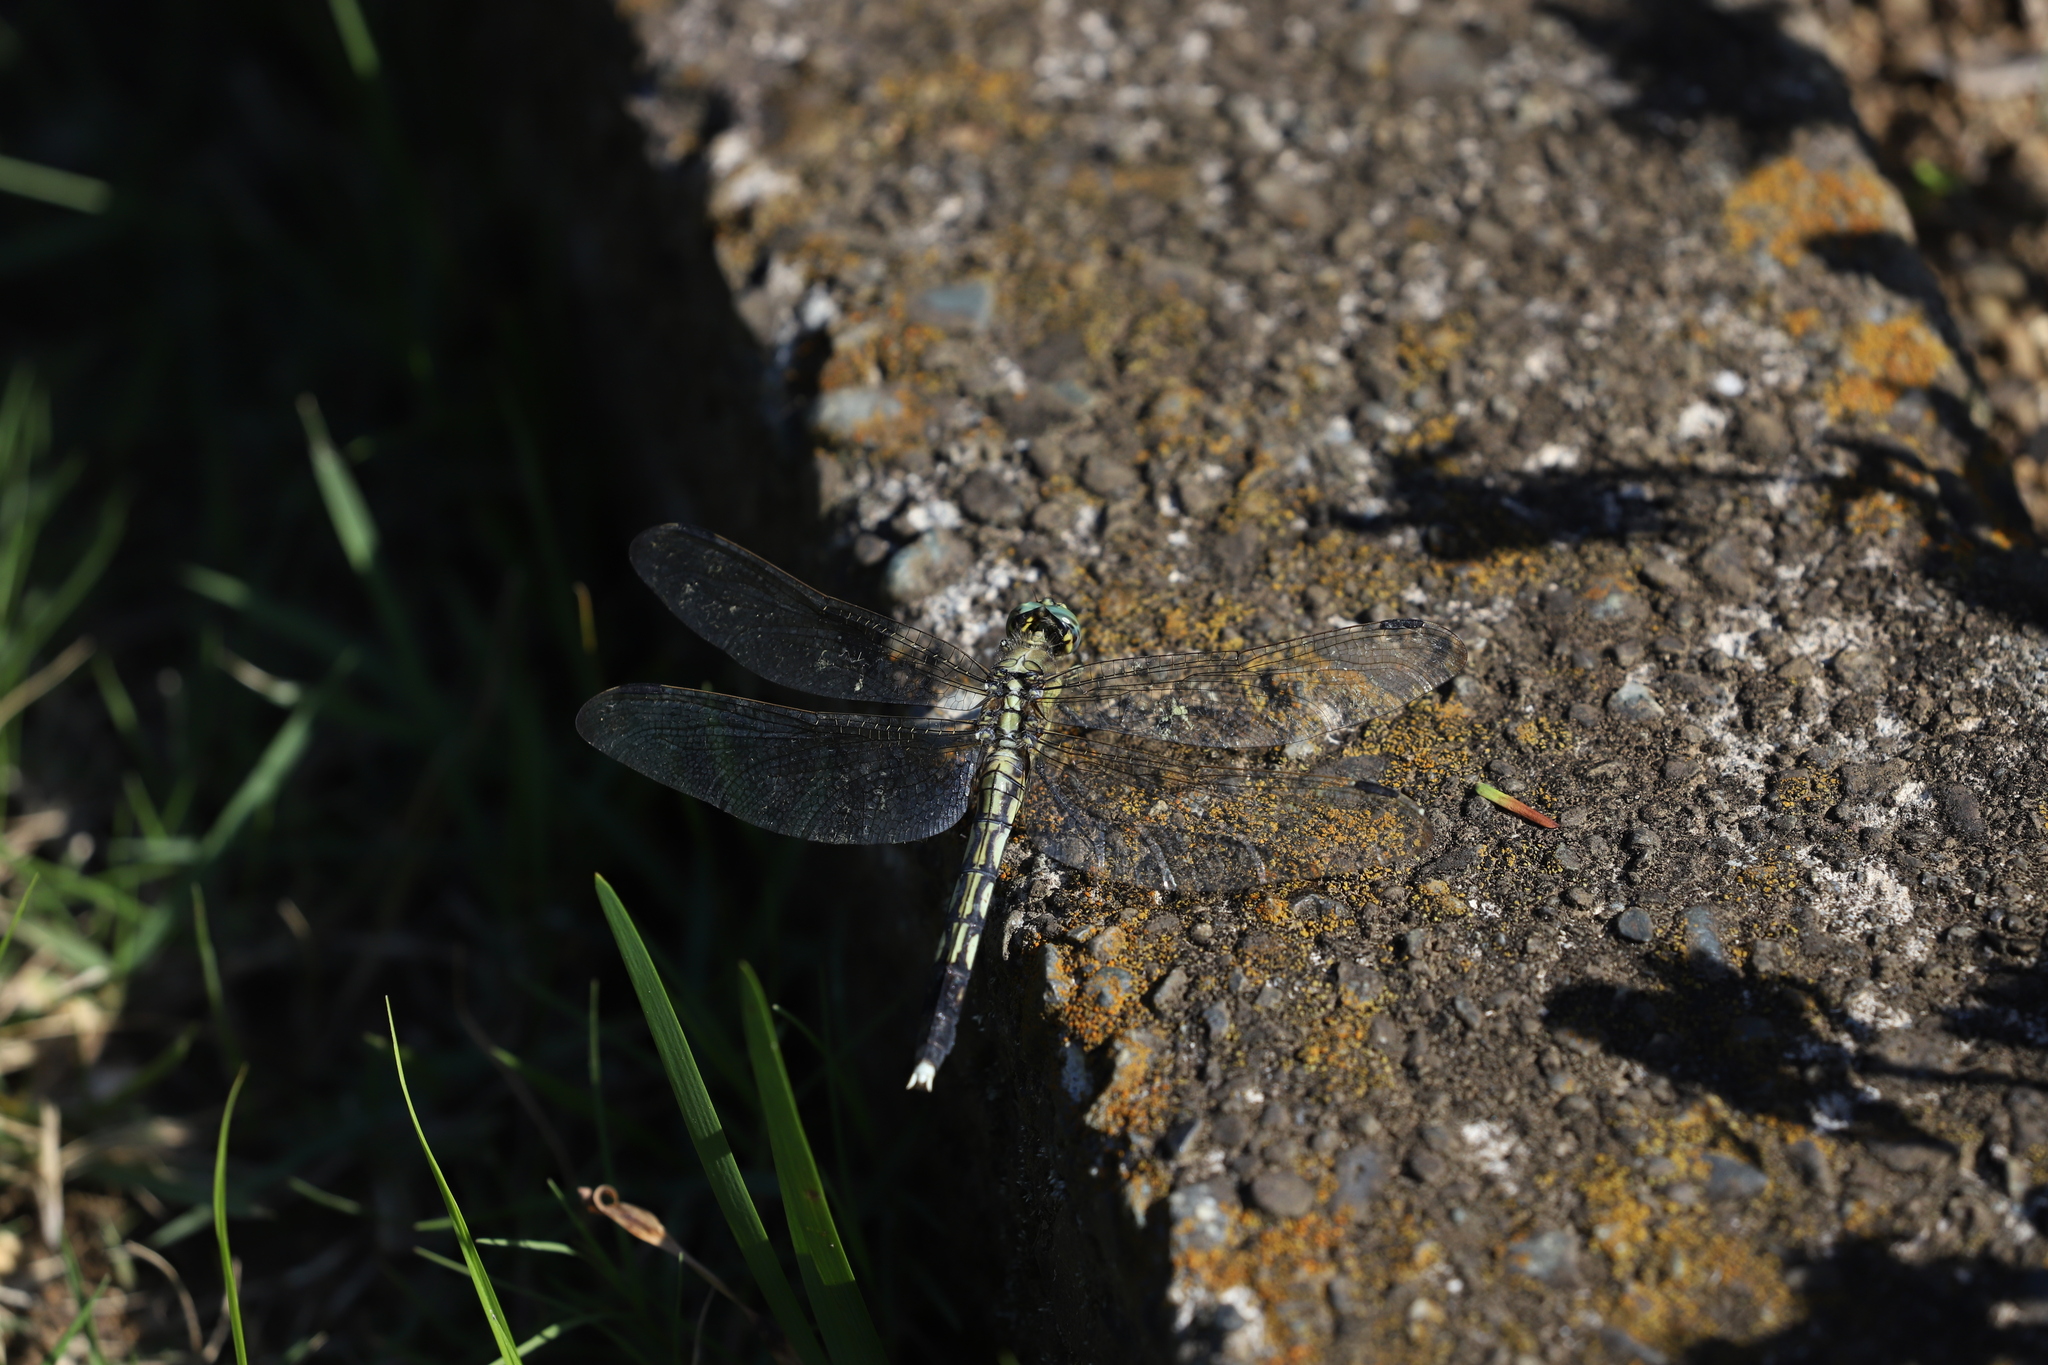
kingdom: Animalia
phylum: Arthropoda
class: Insecta
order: Odonata
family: Libellulidae
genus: Orthetrum
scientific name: Orthetrum albistylum
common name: White-tailed skimmer
